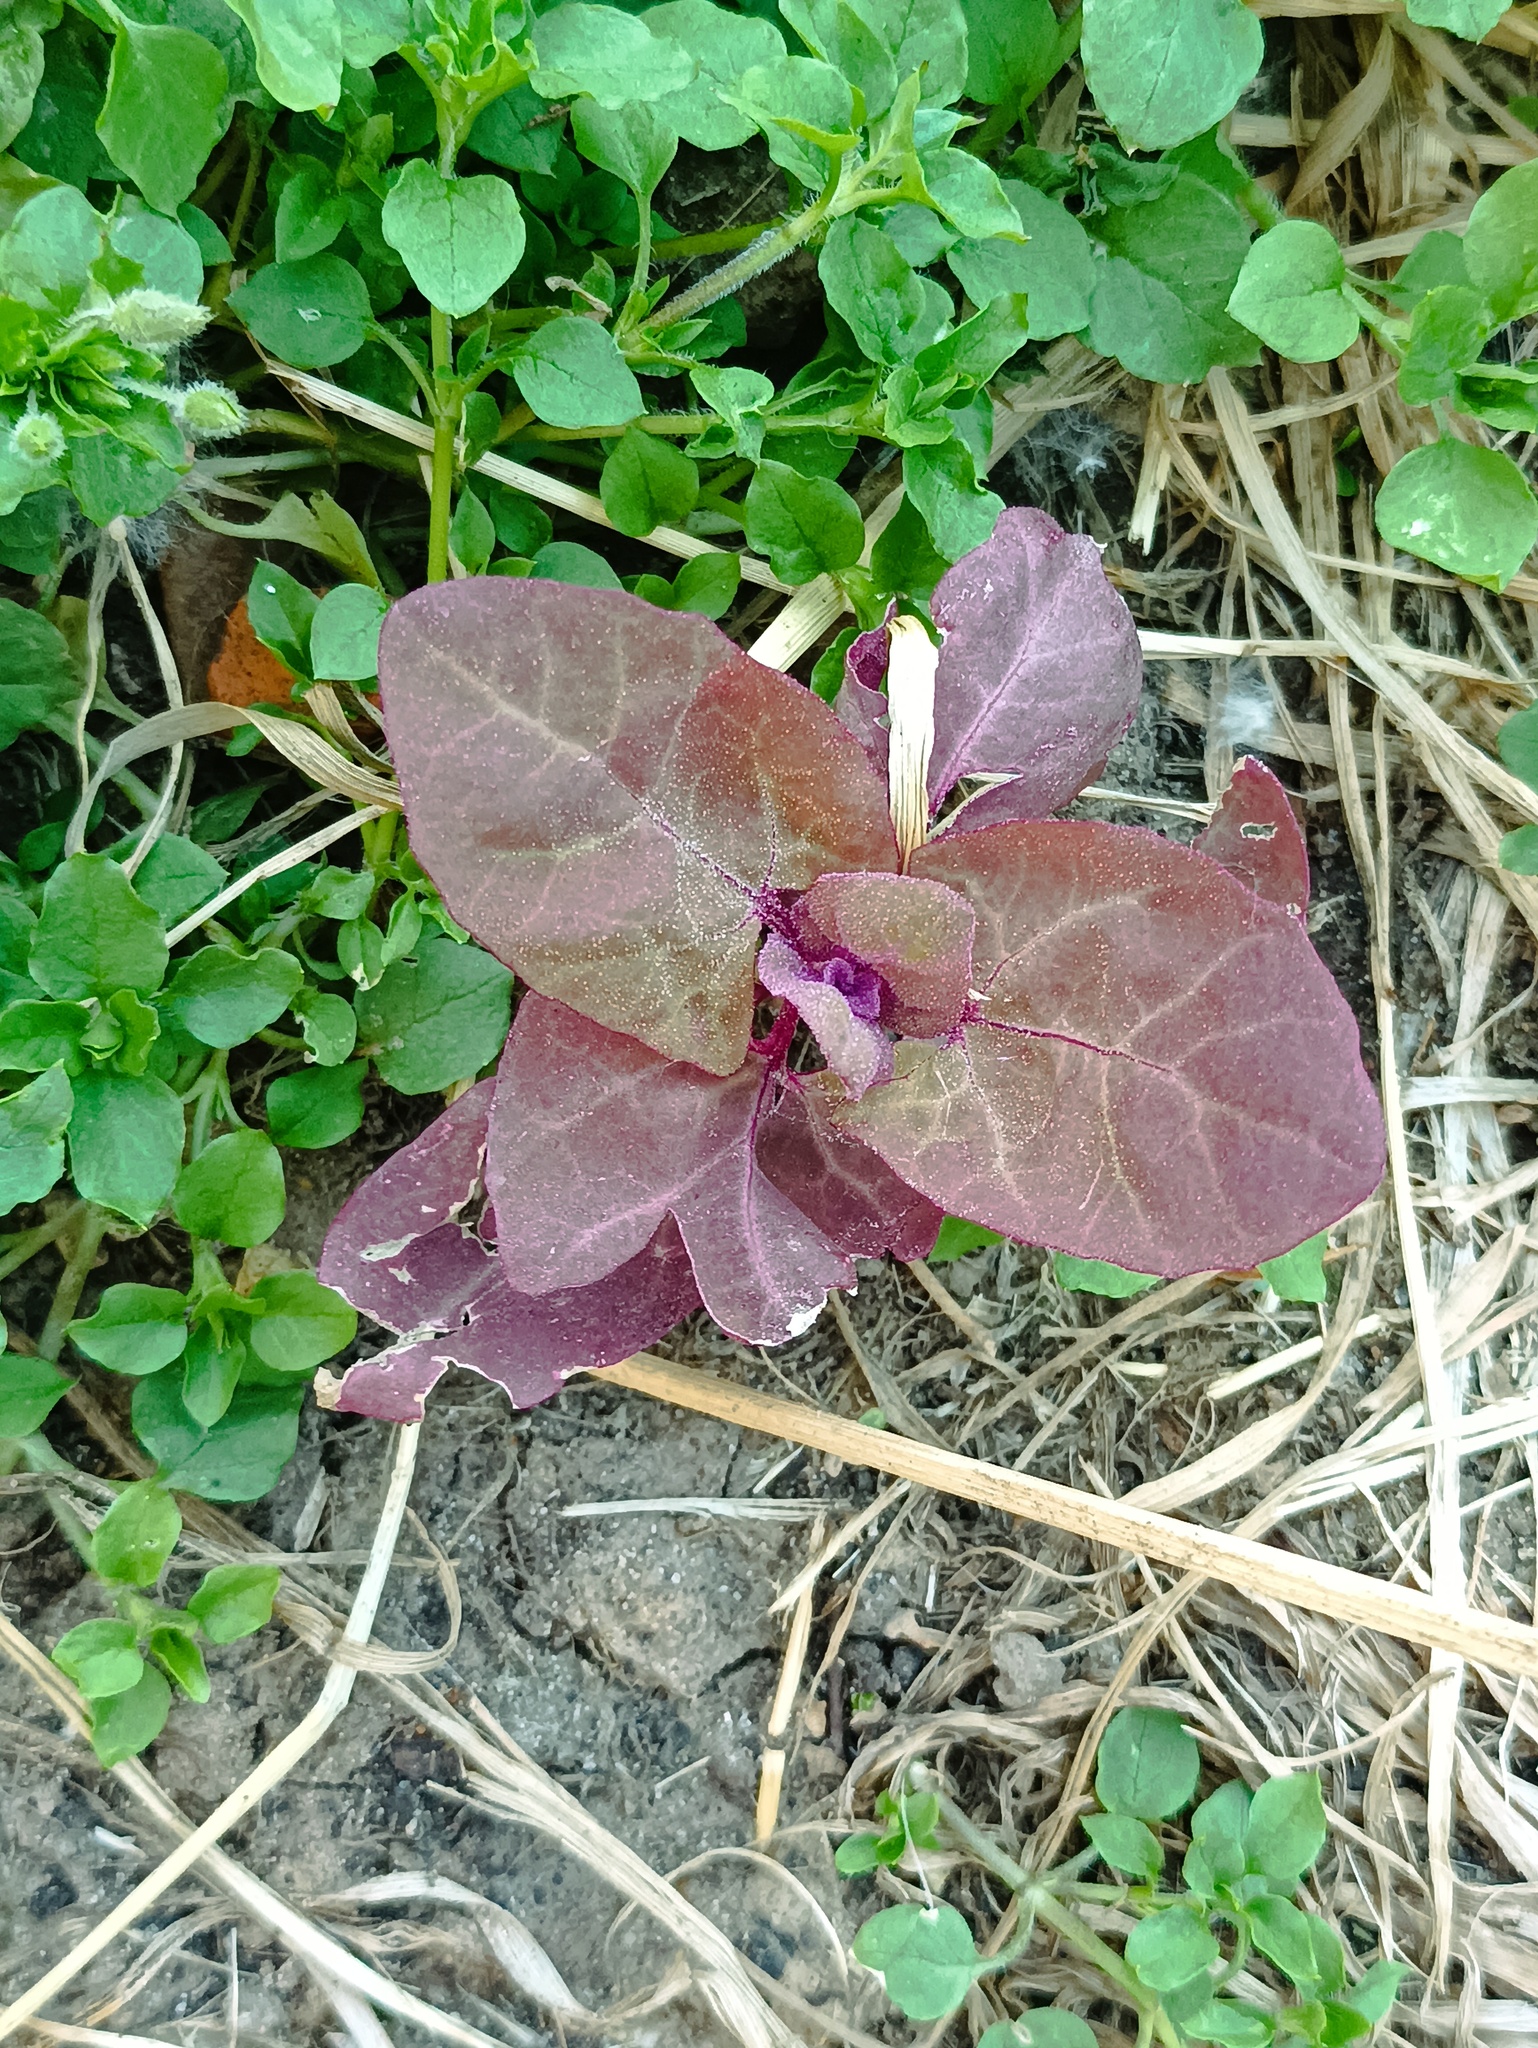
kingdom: Plantae
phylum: Tracheophyta
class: Magnoliopsida
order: Caryophyllales
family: Amaranthaceae
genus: Atriplex
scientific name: Atriplex hortensis
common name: Garden orache
